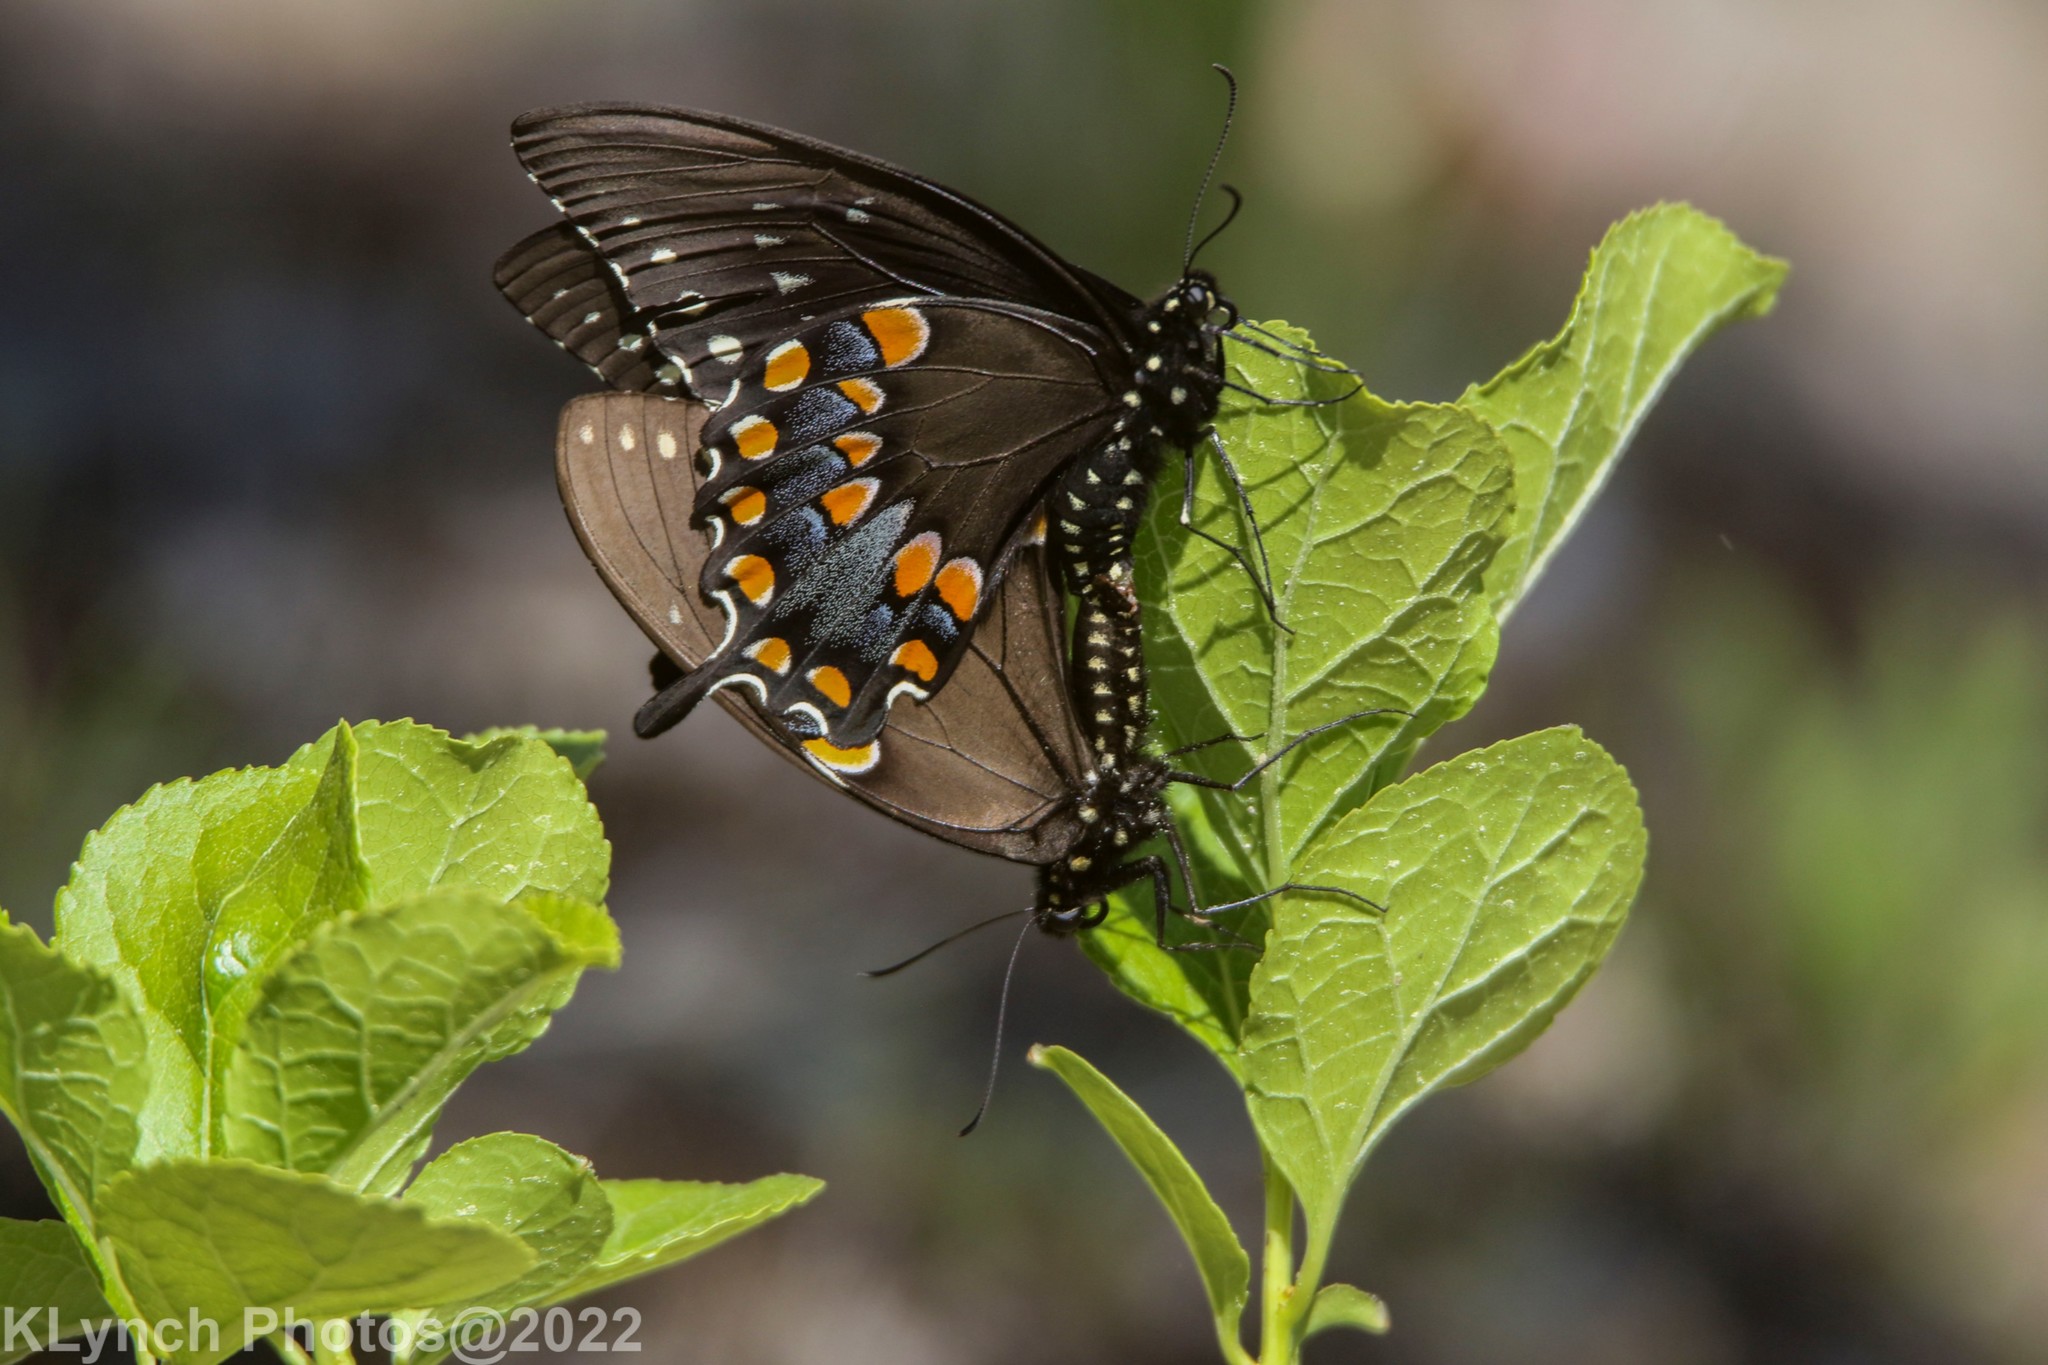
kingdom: Animalia
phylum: Arthropoda
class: Insecta
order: Lepidoptera
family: Papilionidae
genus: Papilio
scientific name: Papilio troilus
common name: Spicebush swallowtail
